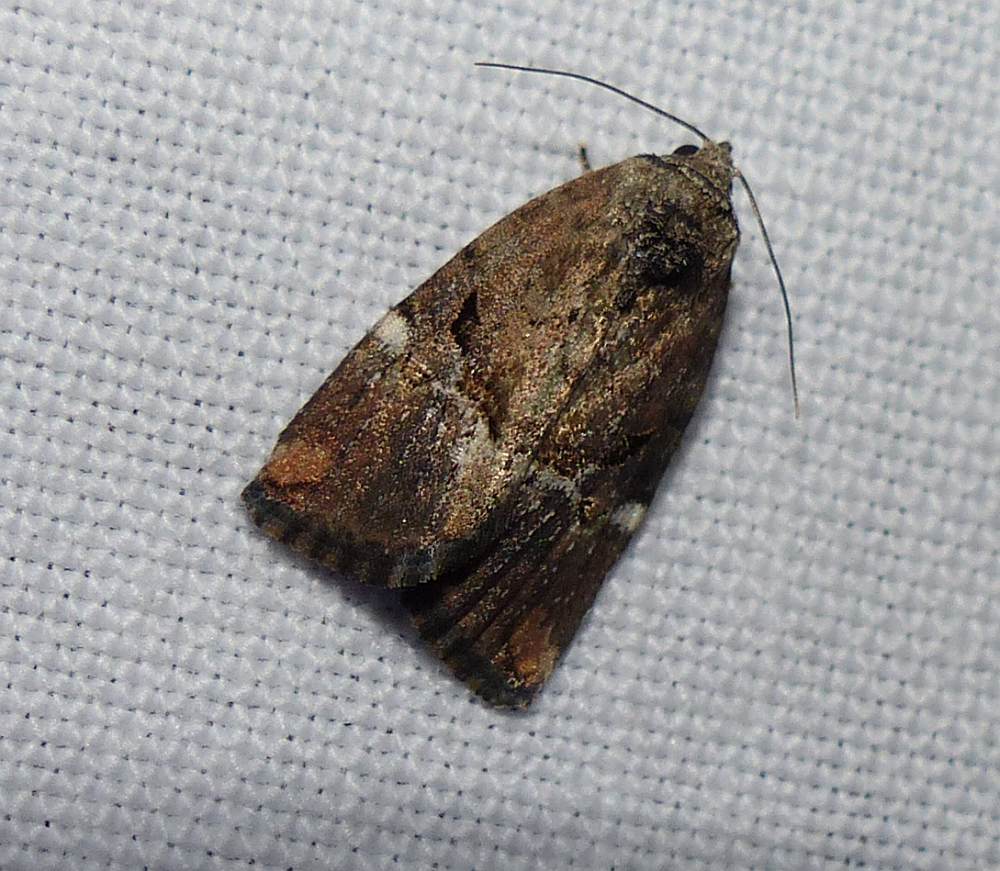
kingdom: Animalia
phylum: Arthropoda
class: Insecta
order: Lepidoptera
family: Noctuidae
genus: Elaphria
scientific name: Elaphria versicolor
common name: Fir harlequin
